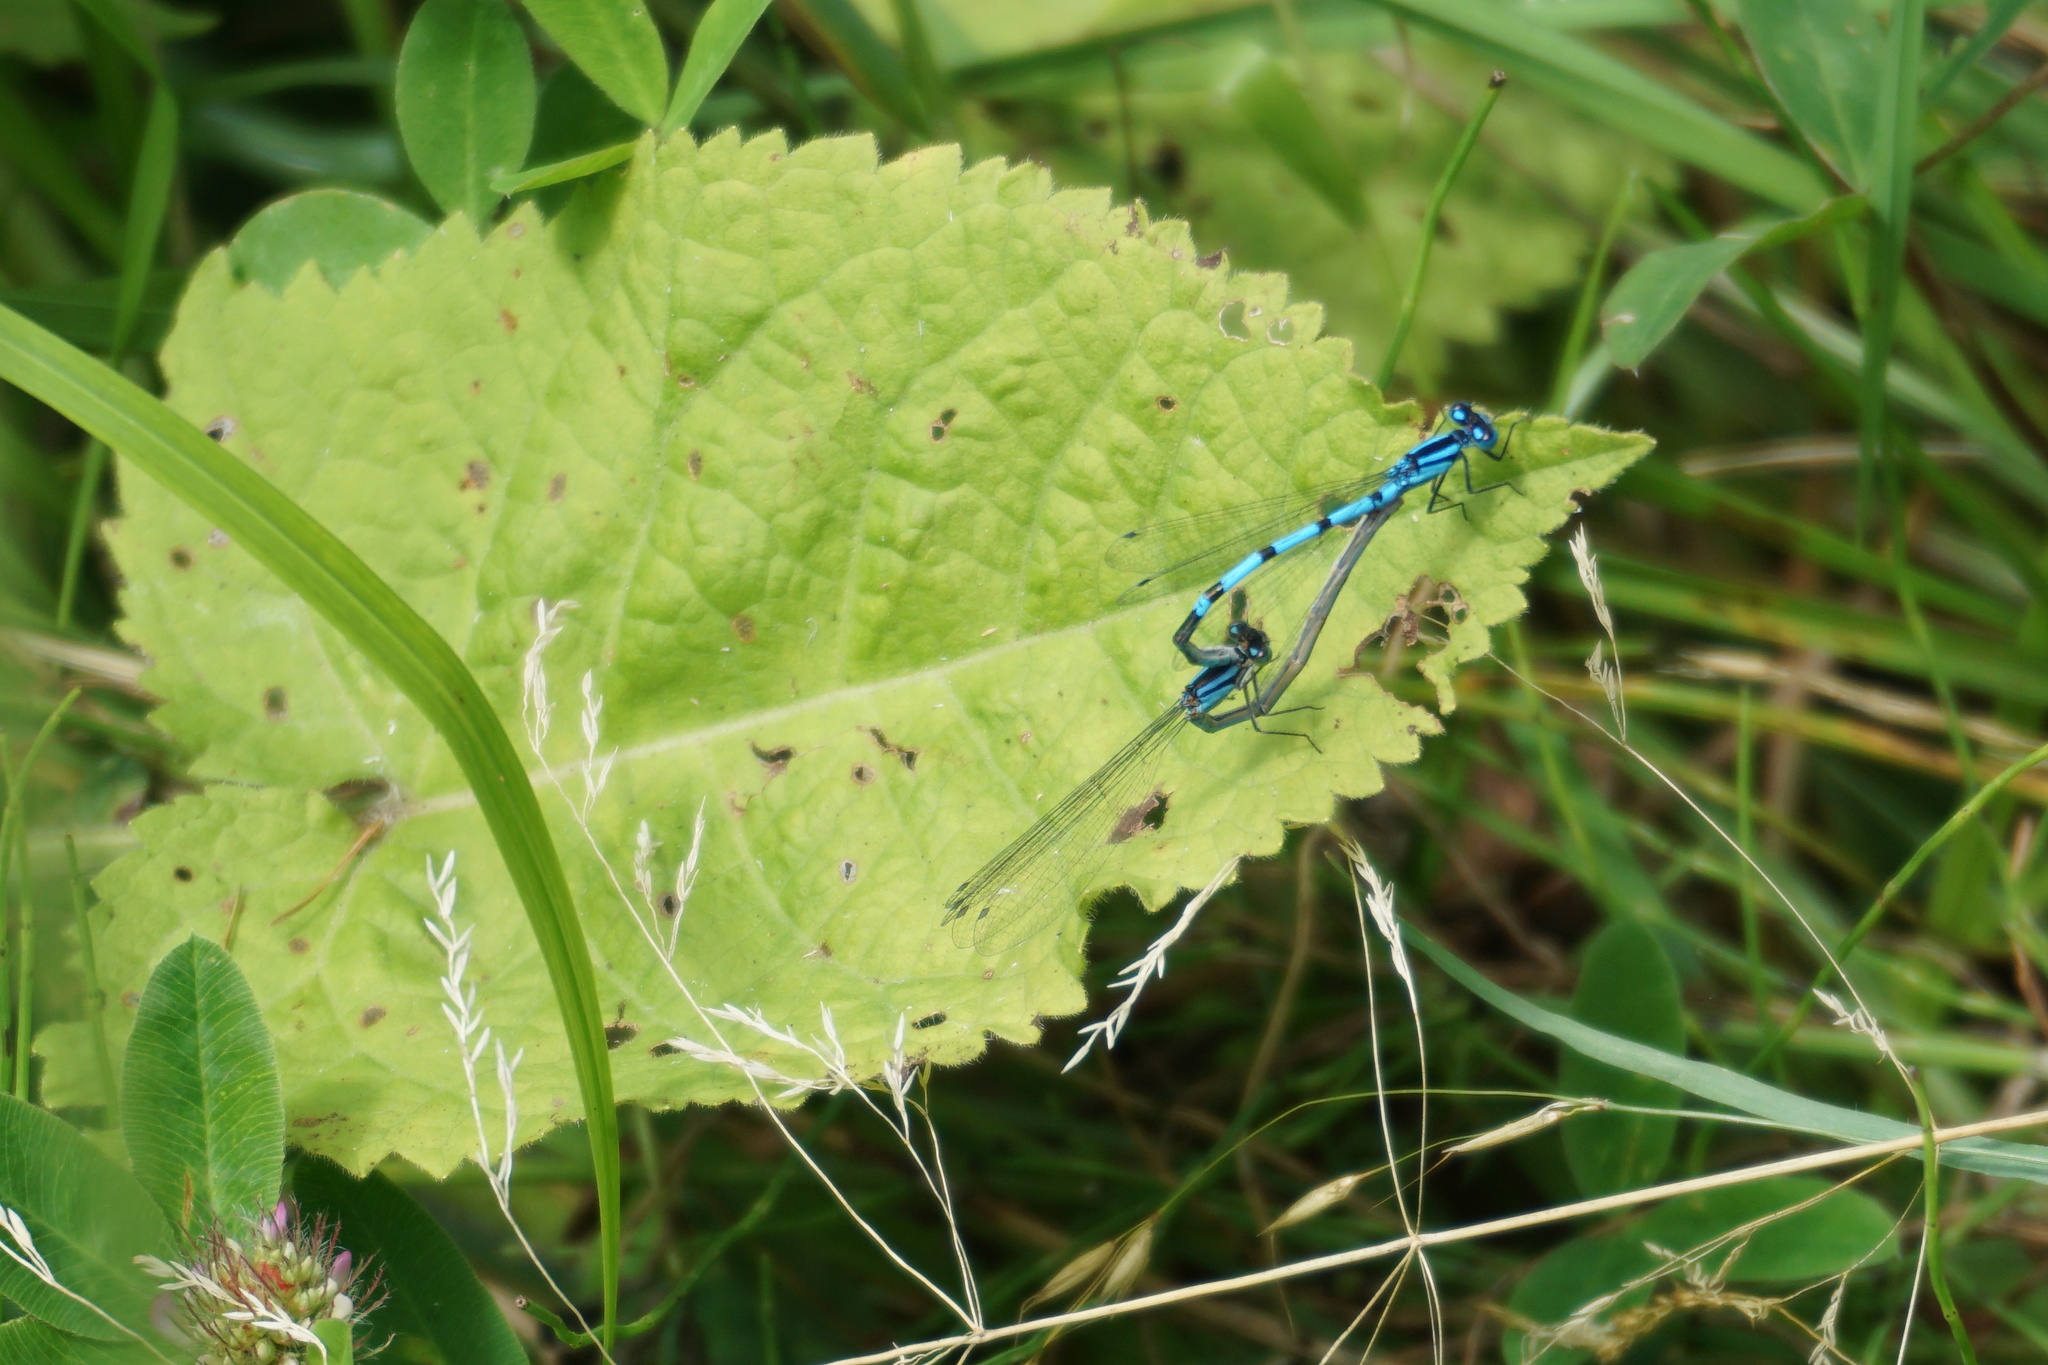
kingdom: Animalia
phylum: Arthropoda
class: Insecta
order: Odonata
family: Coenagrionidae
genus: Enallagma
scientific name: Enallagma cyathigerum
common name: Common blue damselfly
